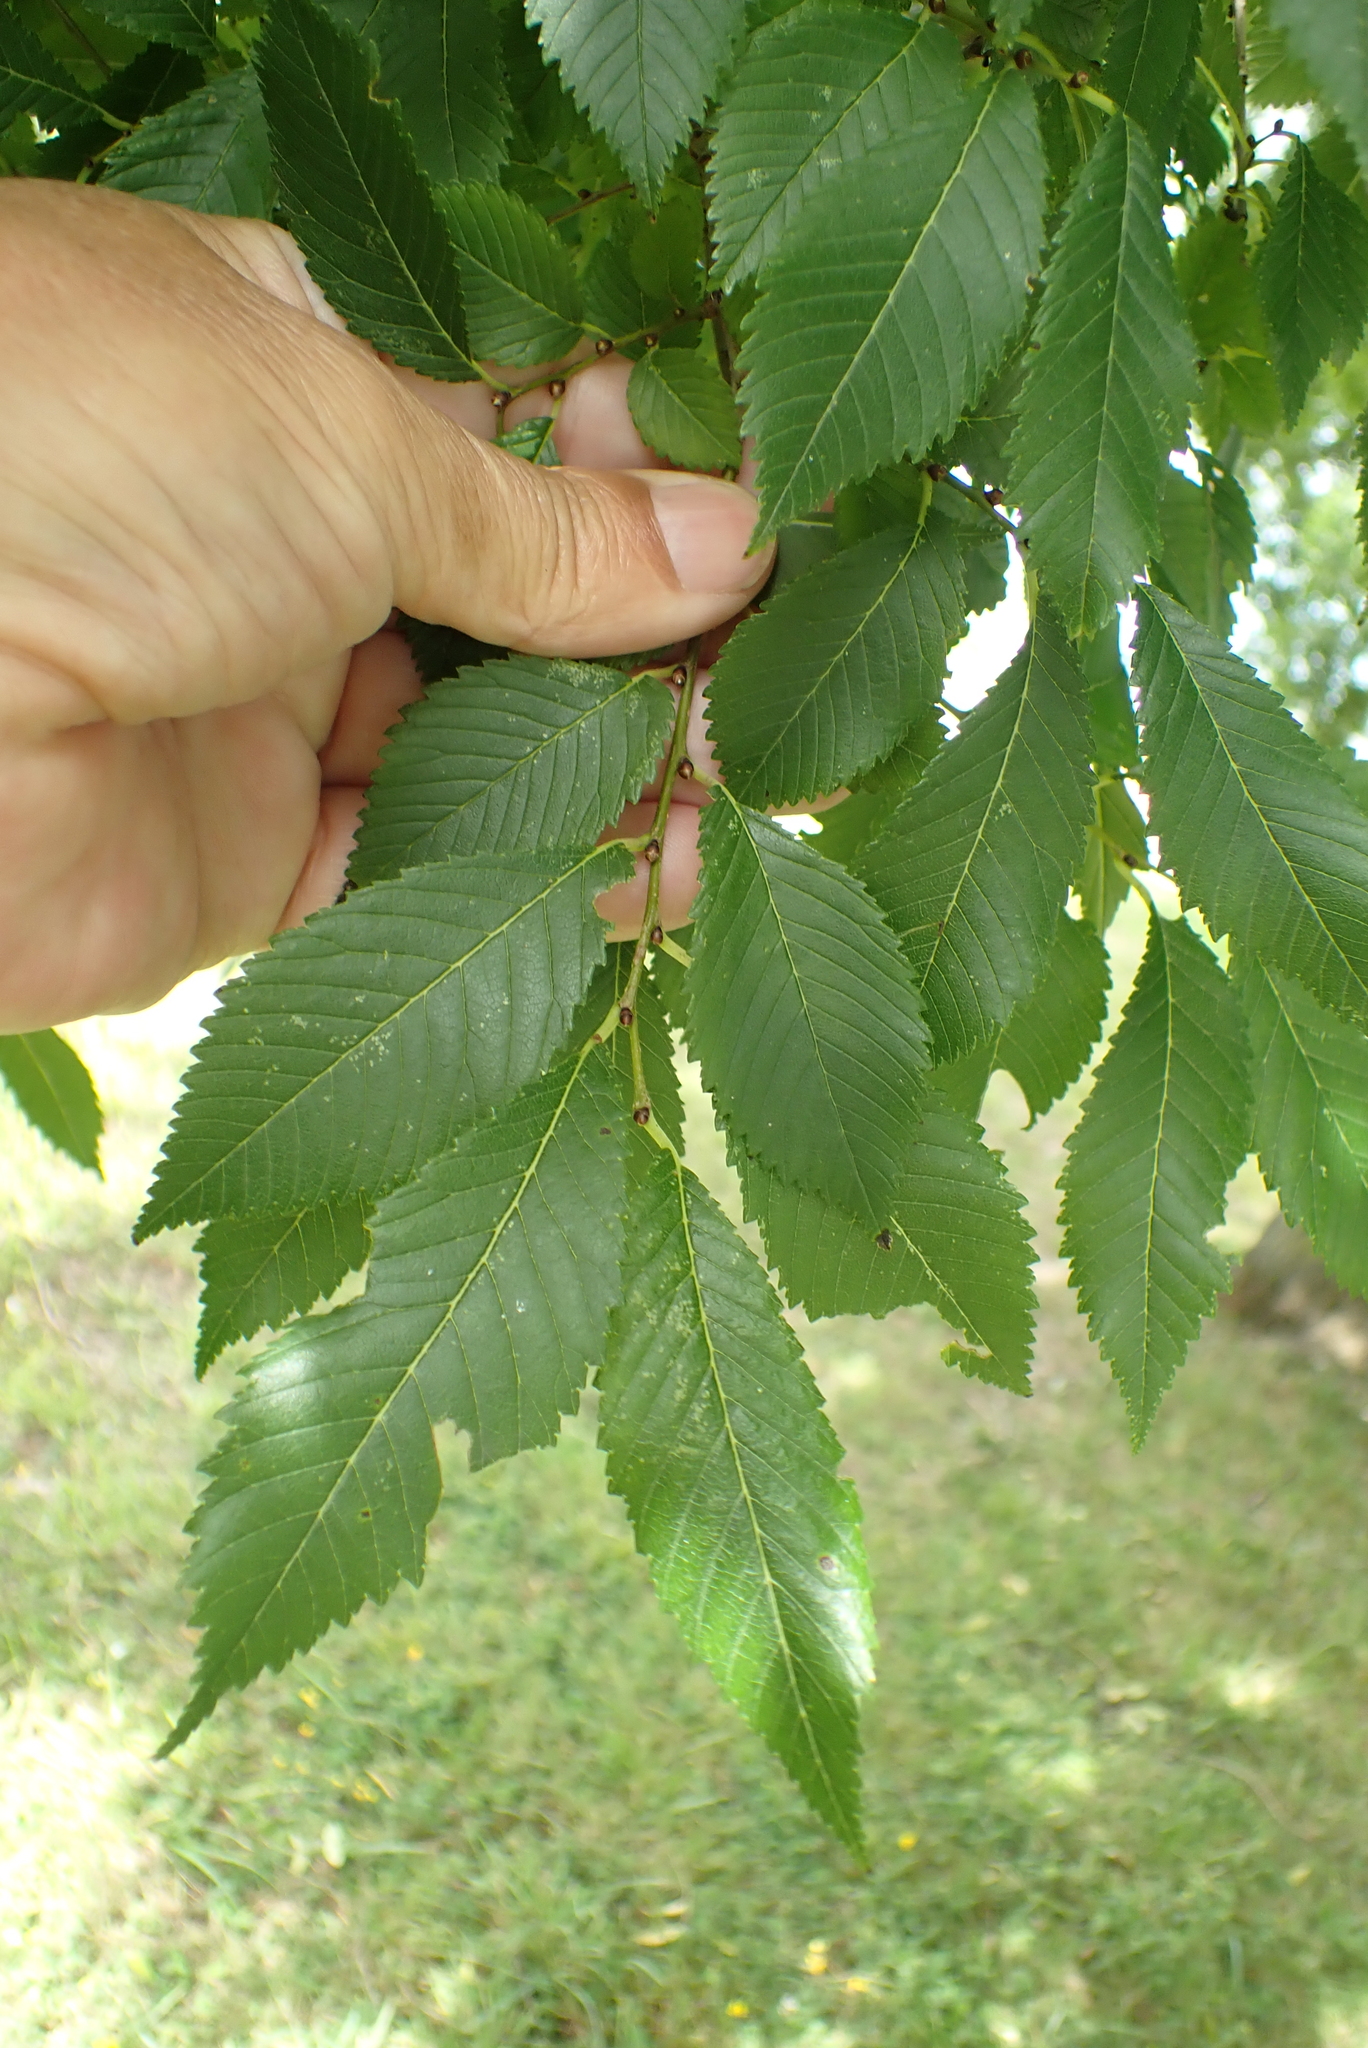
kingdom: Plantae
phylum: Tracheophyta
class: Magnoliopsida
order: Rosales
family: Ulmaceae
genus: Ulmus
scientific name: Ulmus minor
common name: Small-leaved elm
